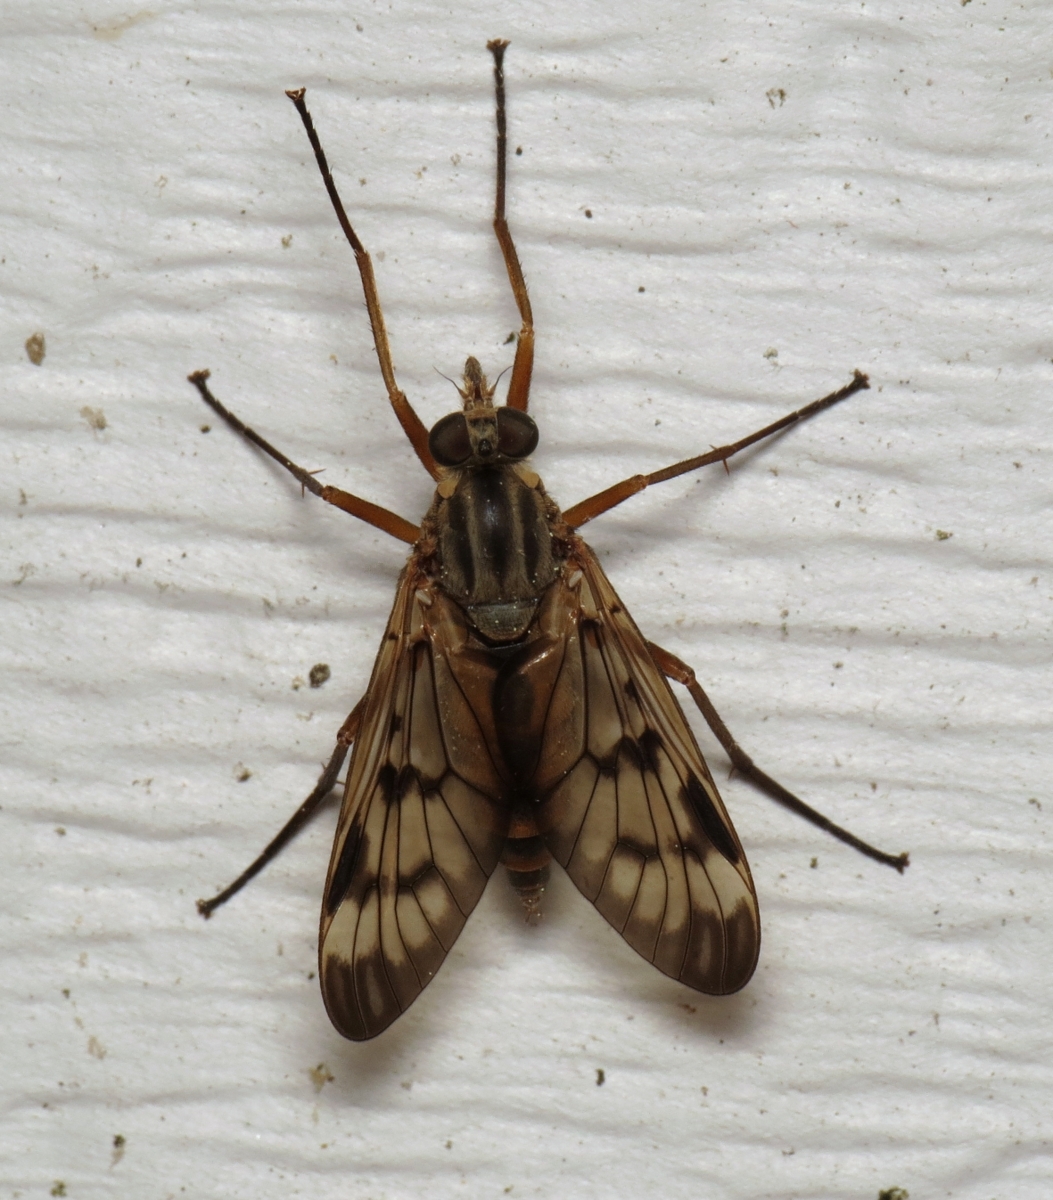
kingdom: Animalia
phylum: Arthropoda
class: Insecta
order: Diptera
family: Rhagionidae
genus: Rhagio
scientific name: Rhagio scolopacea
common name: Downlooker snipefly
